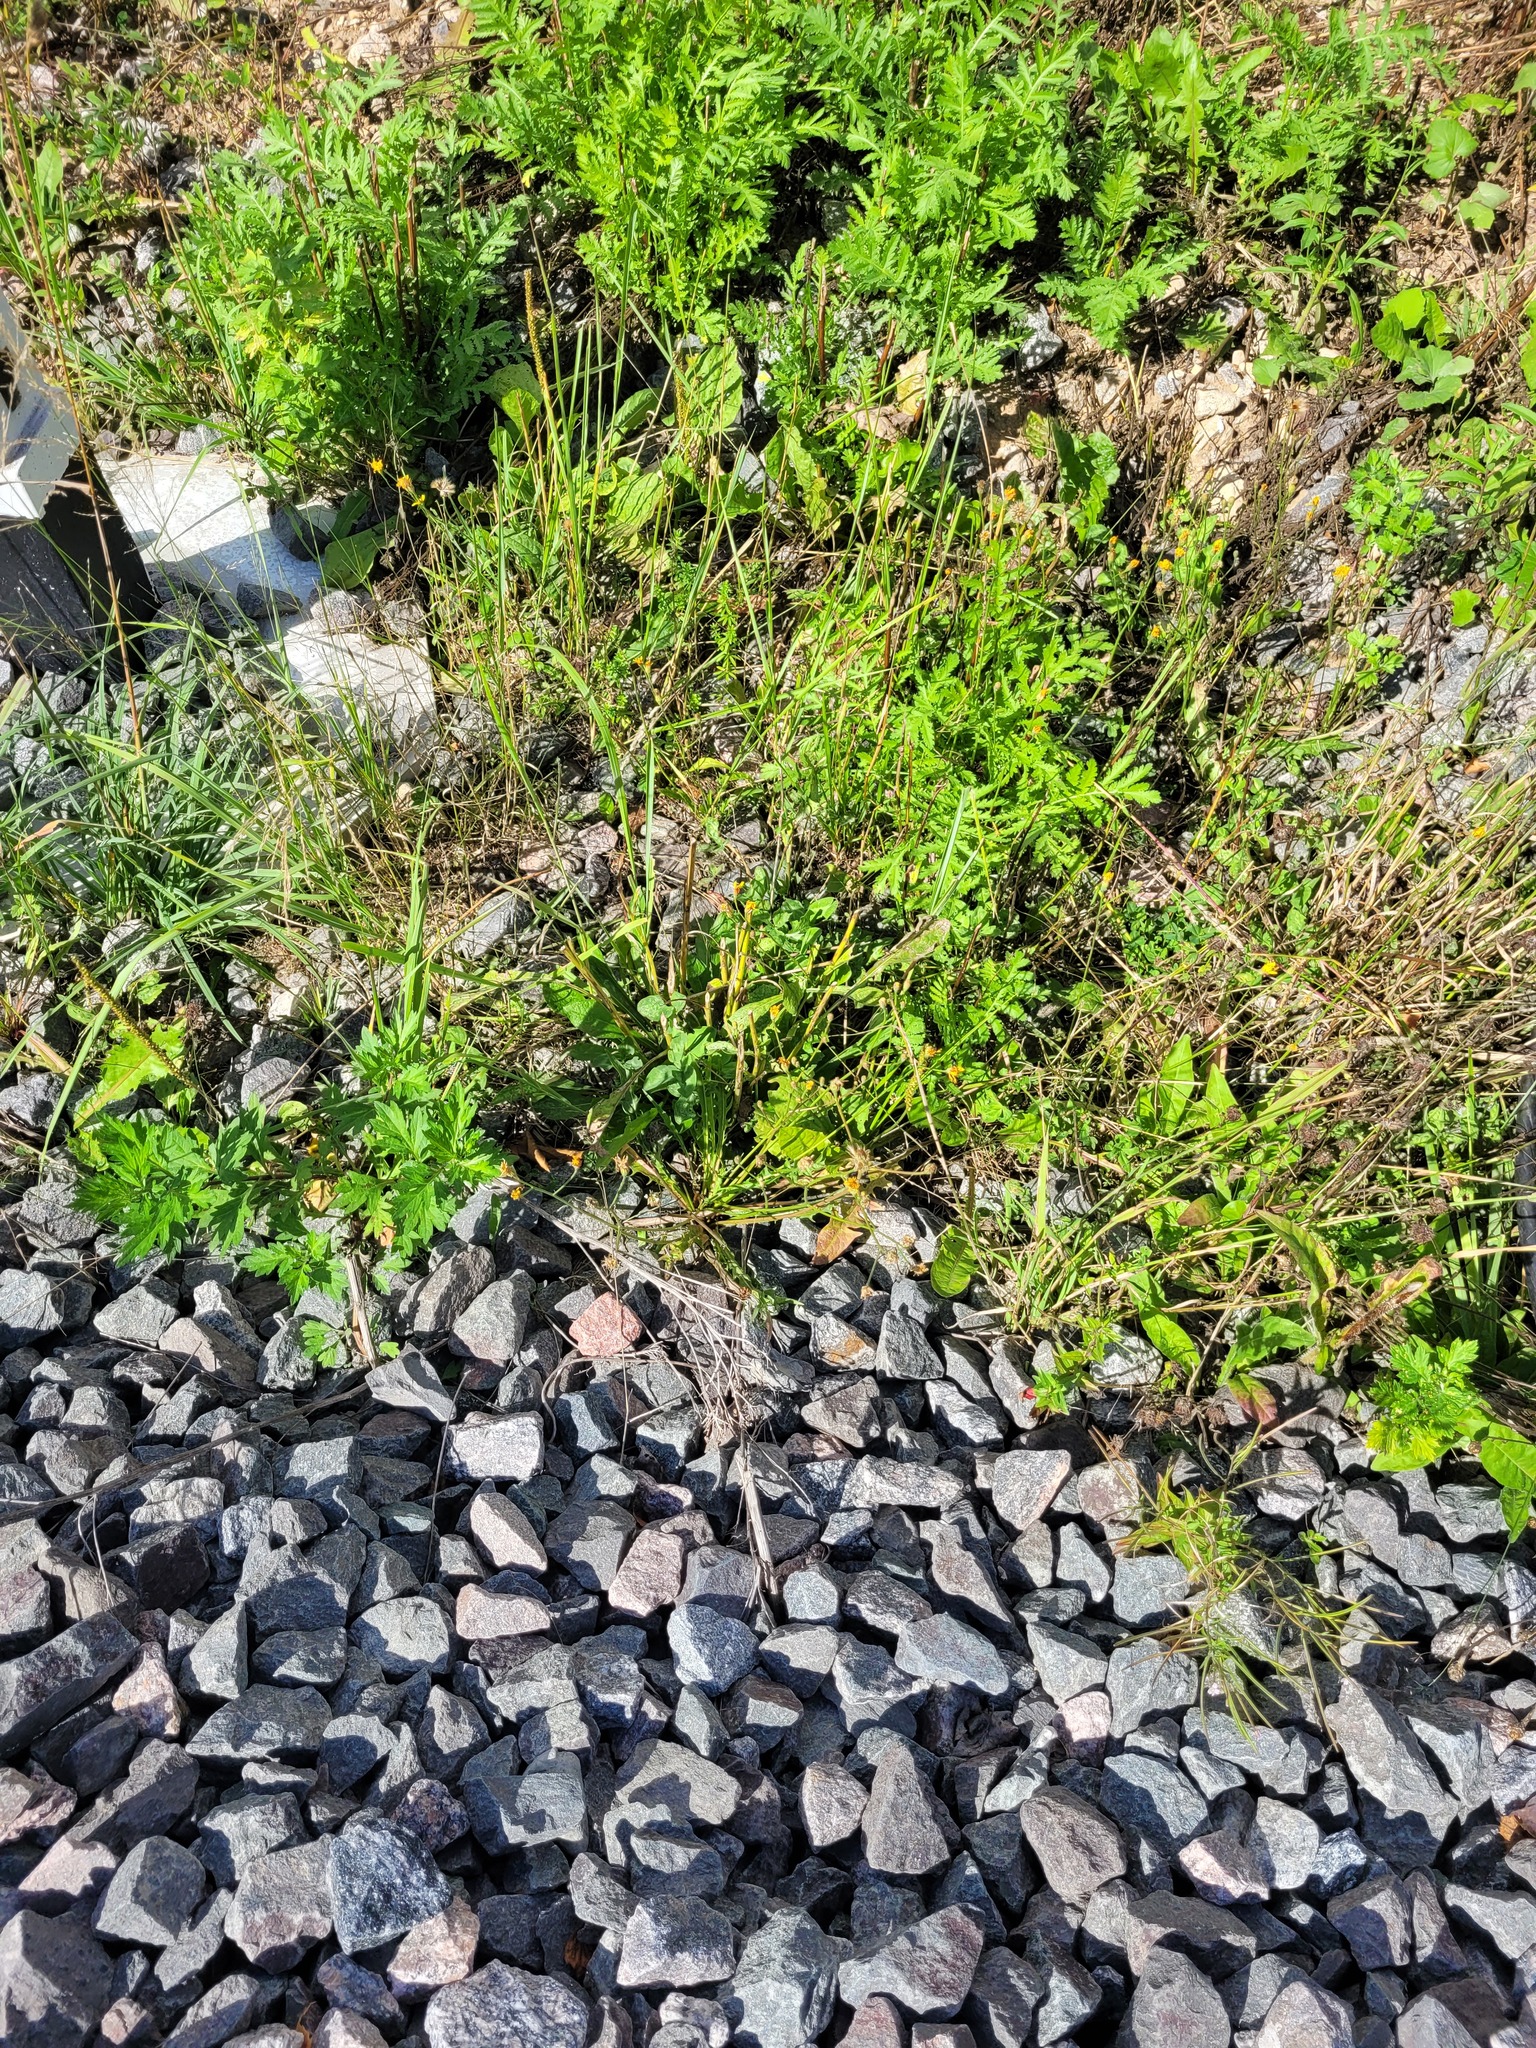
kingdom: Plantae
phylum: Tracheophyta
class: Magnoliopsida
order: Asterales
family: Asteraceae
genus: Scorzoneroides
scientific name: Scorzoneroides autumnalis
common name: Autumn hawkbit
